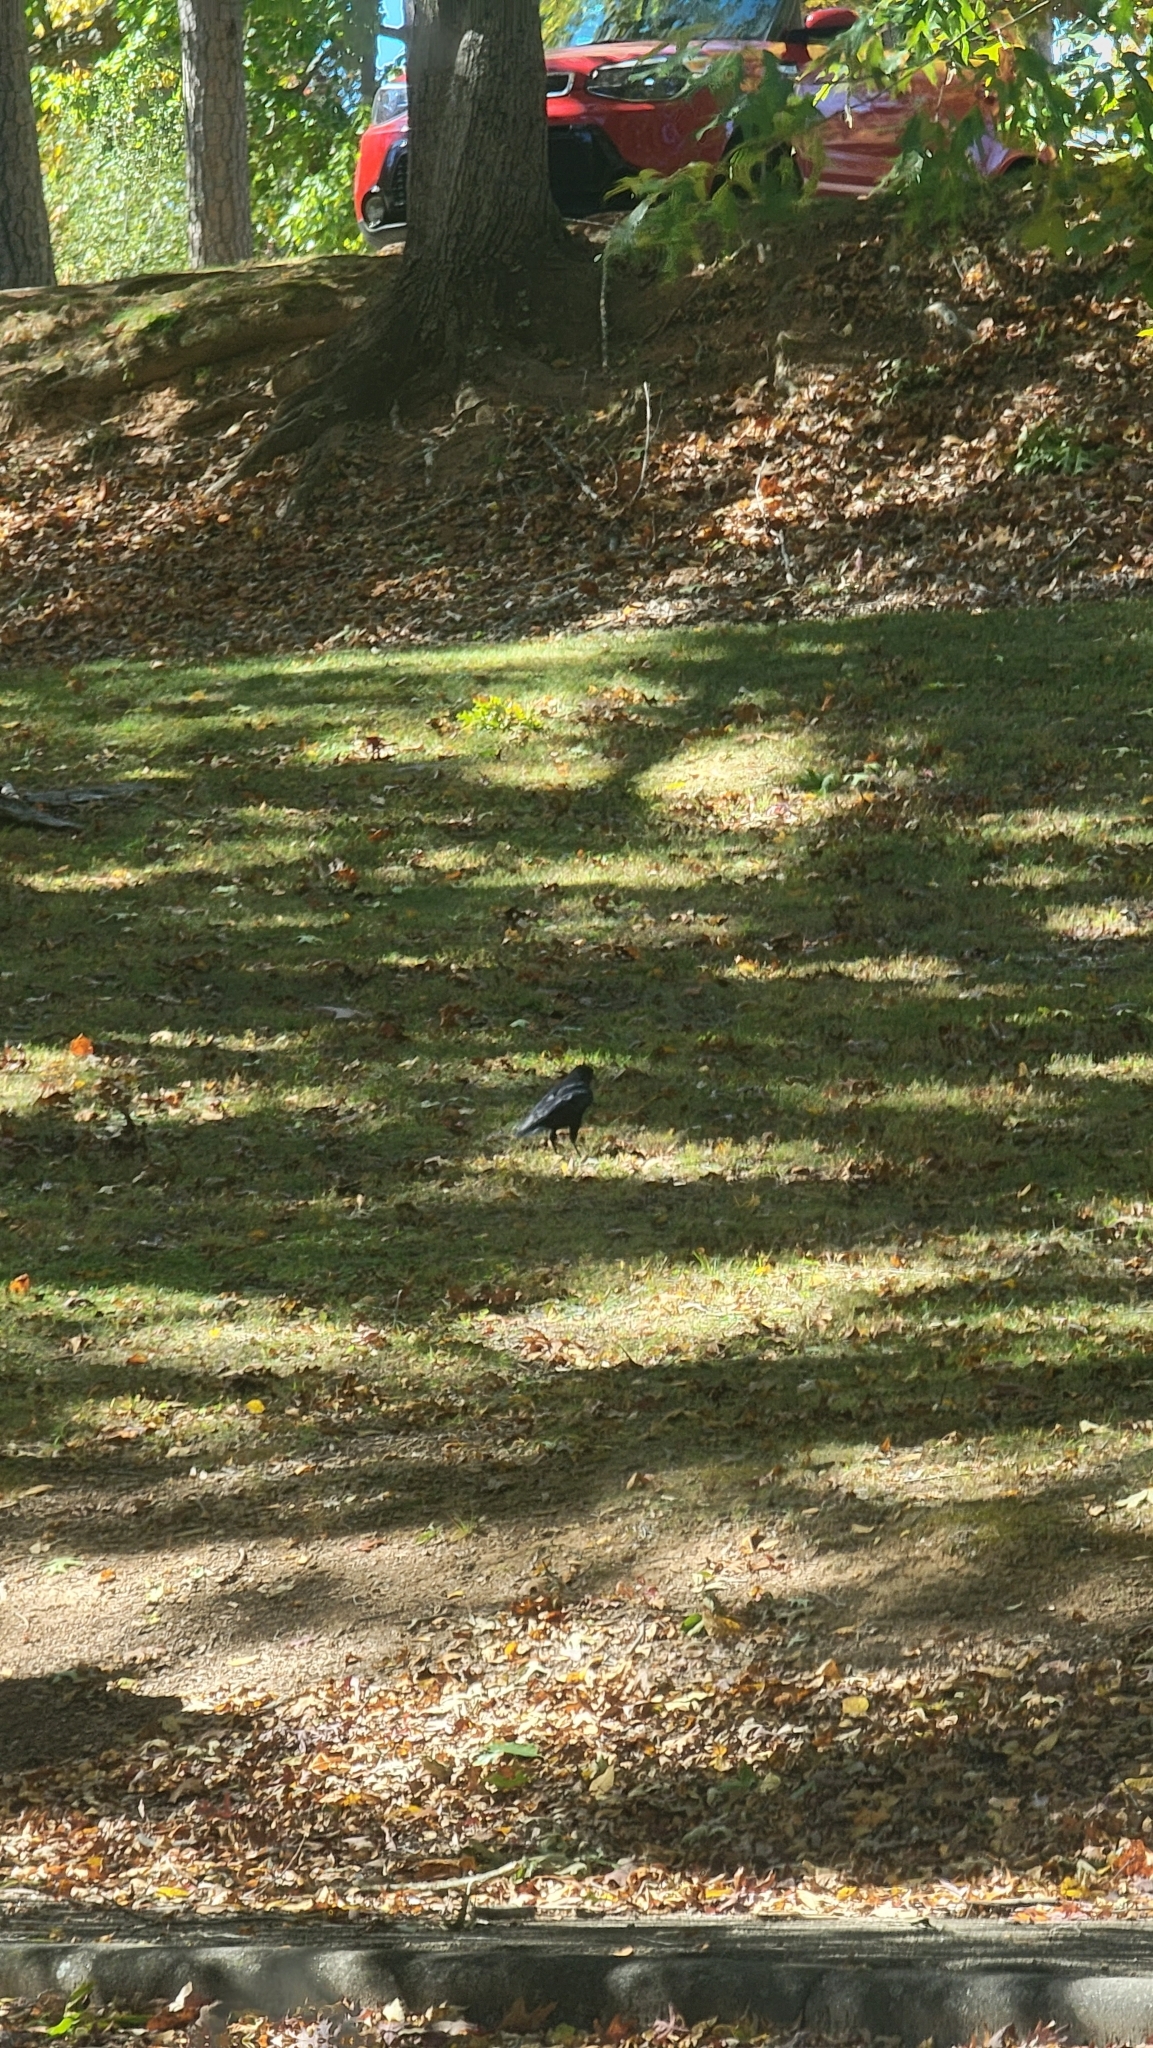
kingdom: Animalia
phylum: Chordata
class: Aves
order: Passeriformes
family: Corvidae
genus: Corvus
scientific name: Corvus brachyrhynchos
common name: American crow
